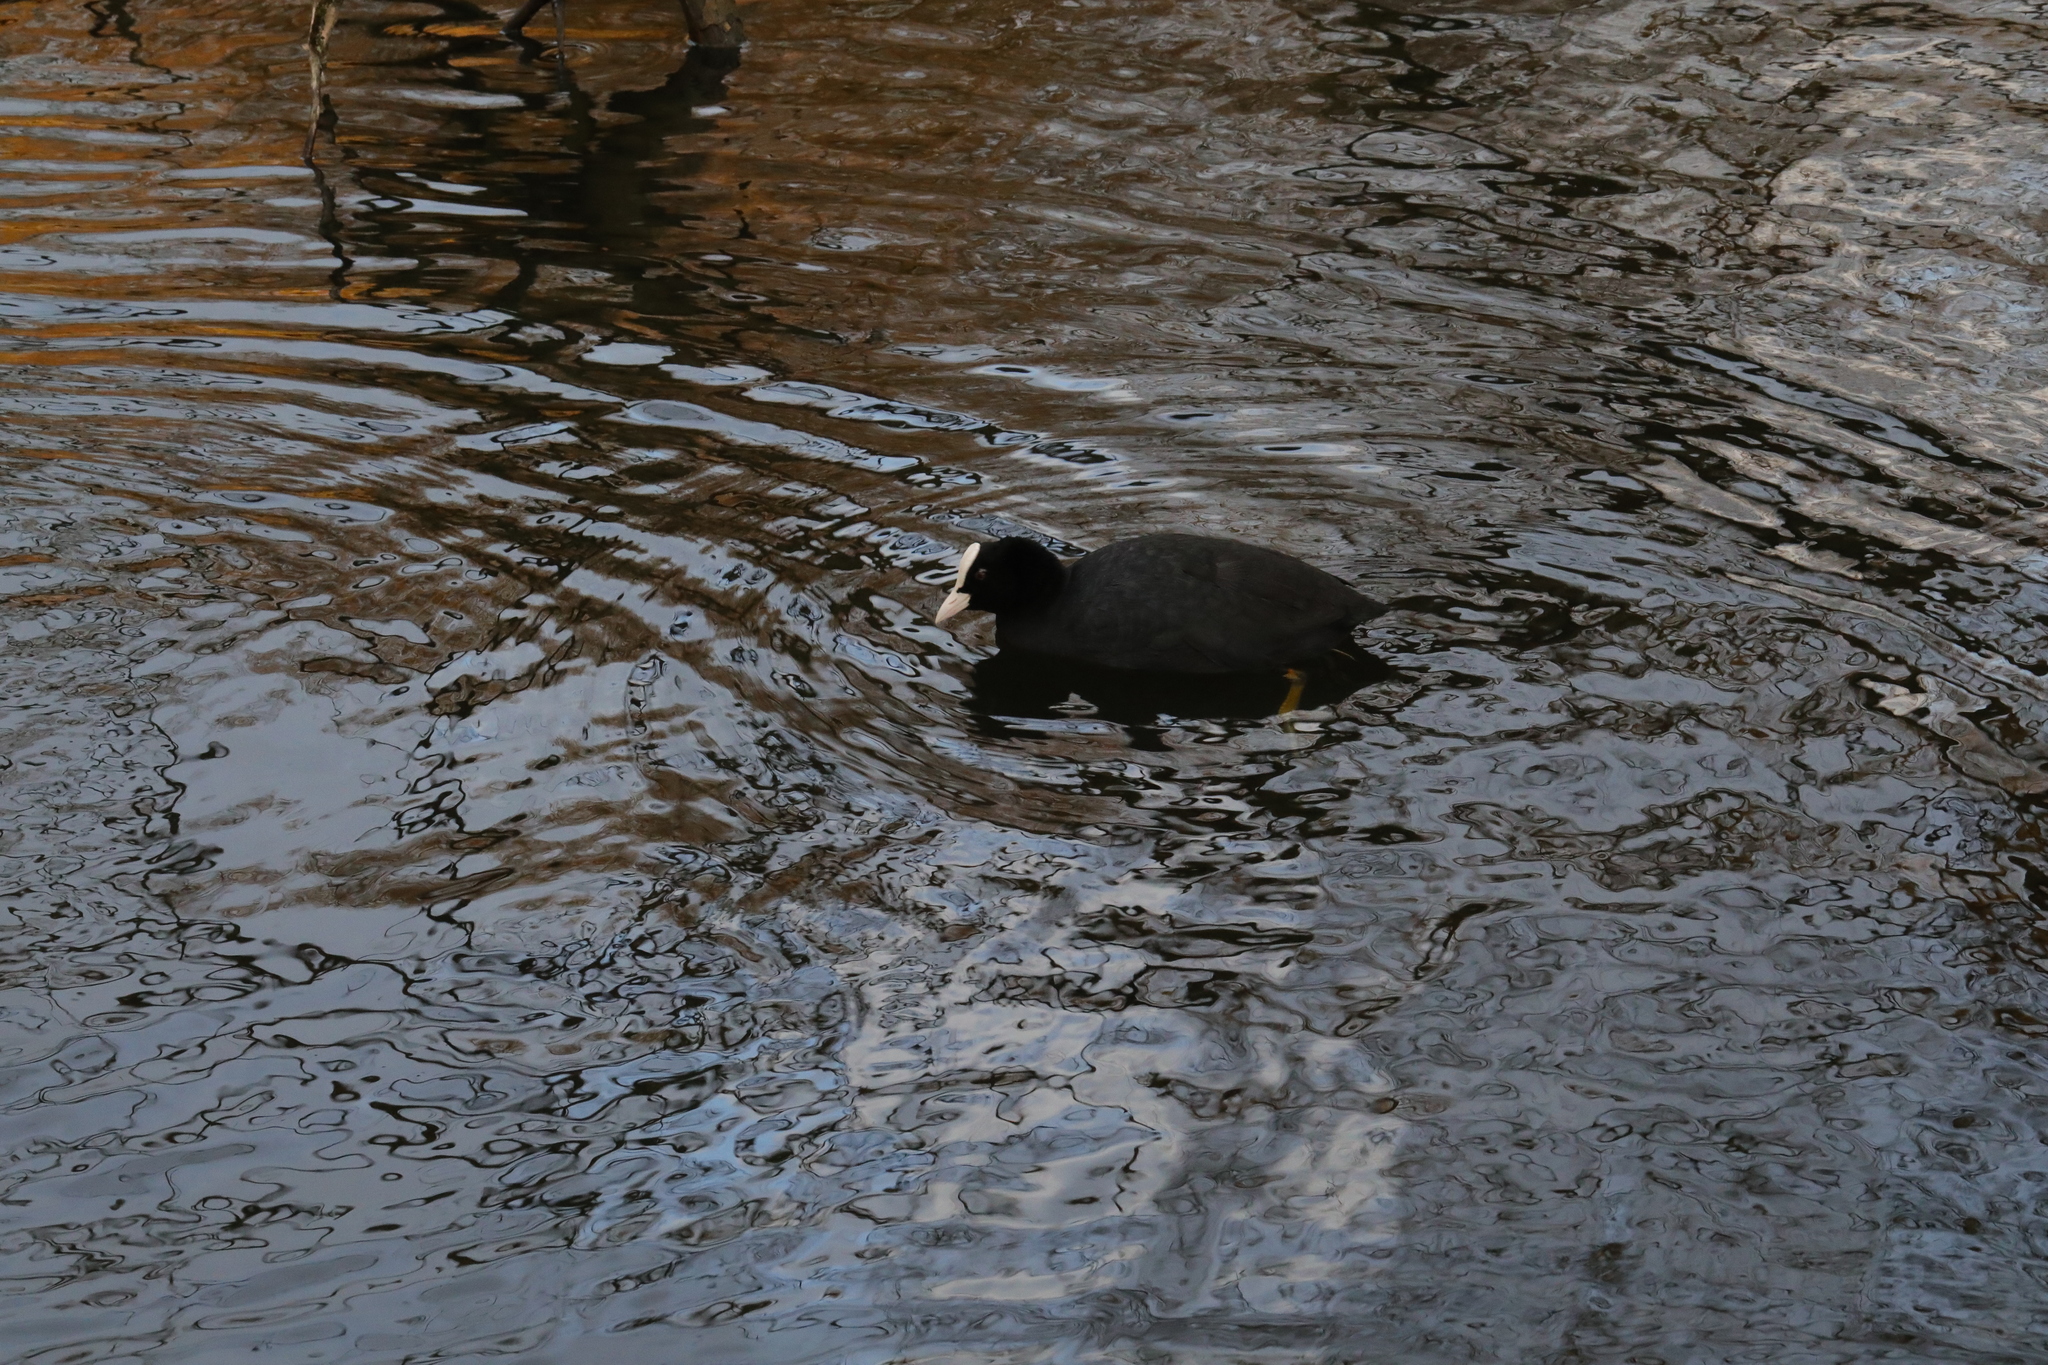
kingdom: Animalia
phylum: Chordata
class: Aves
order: Gruiformes
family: Rallidae
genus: Fulica
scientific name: Fulica atra
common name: Eurasian coot
